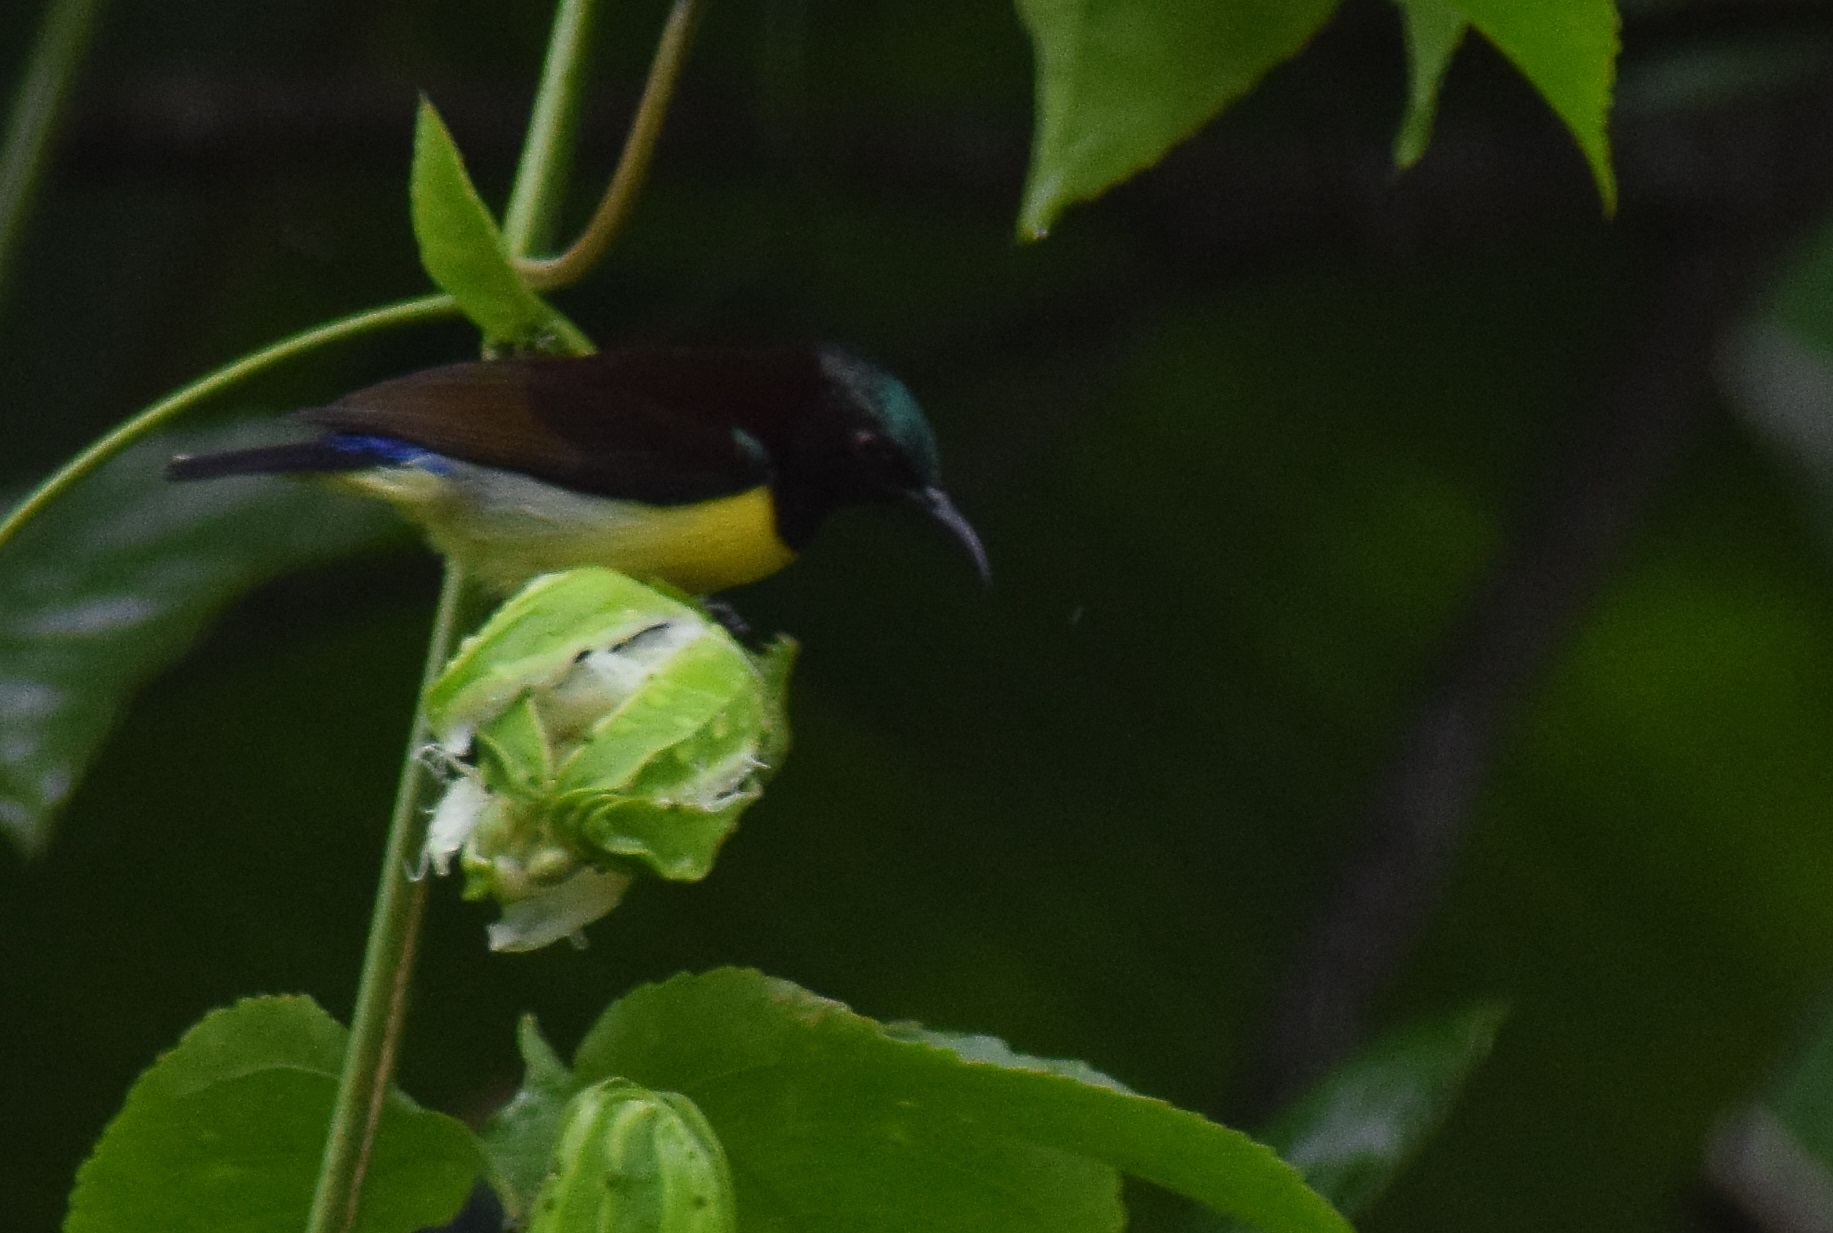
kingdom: Animalia
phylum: Chordata
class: Aves
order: Passeriformes
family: Nectariniidae
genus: Leptocoma
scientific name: Leptocoma zeylonica
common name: Purple-rumped sunbird
